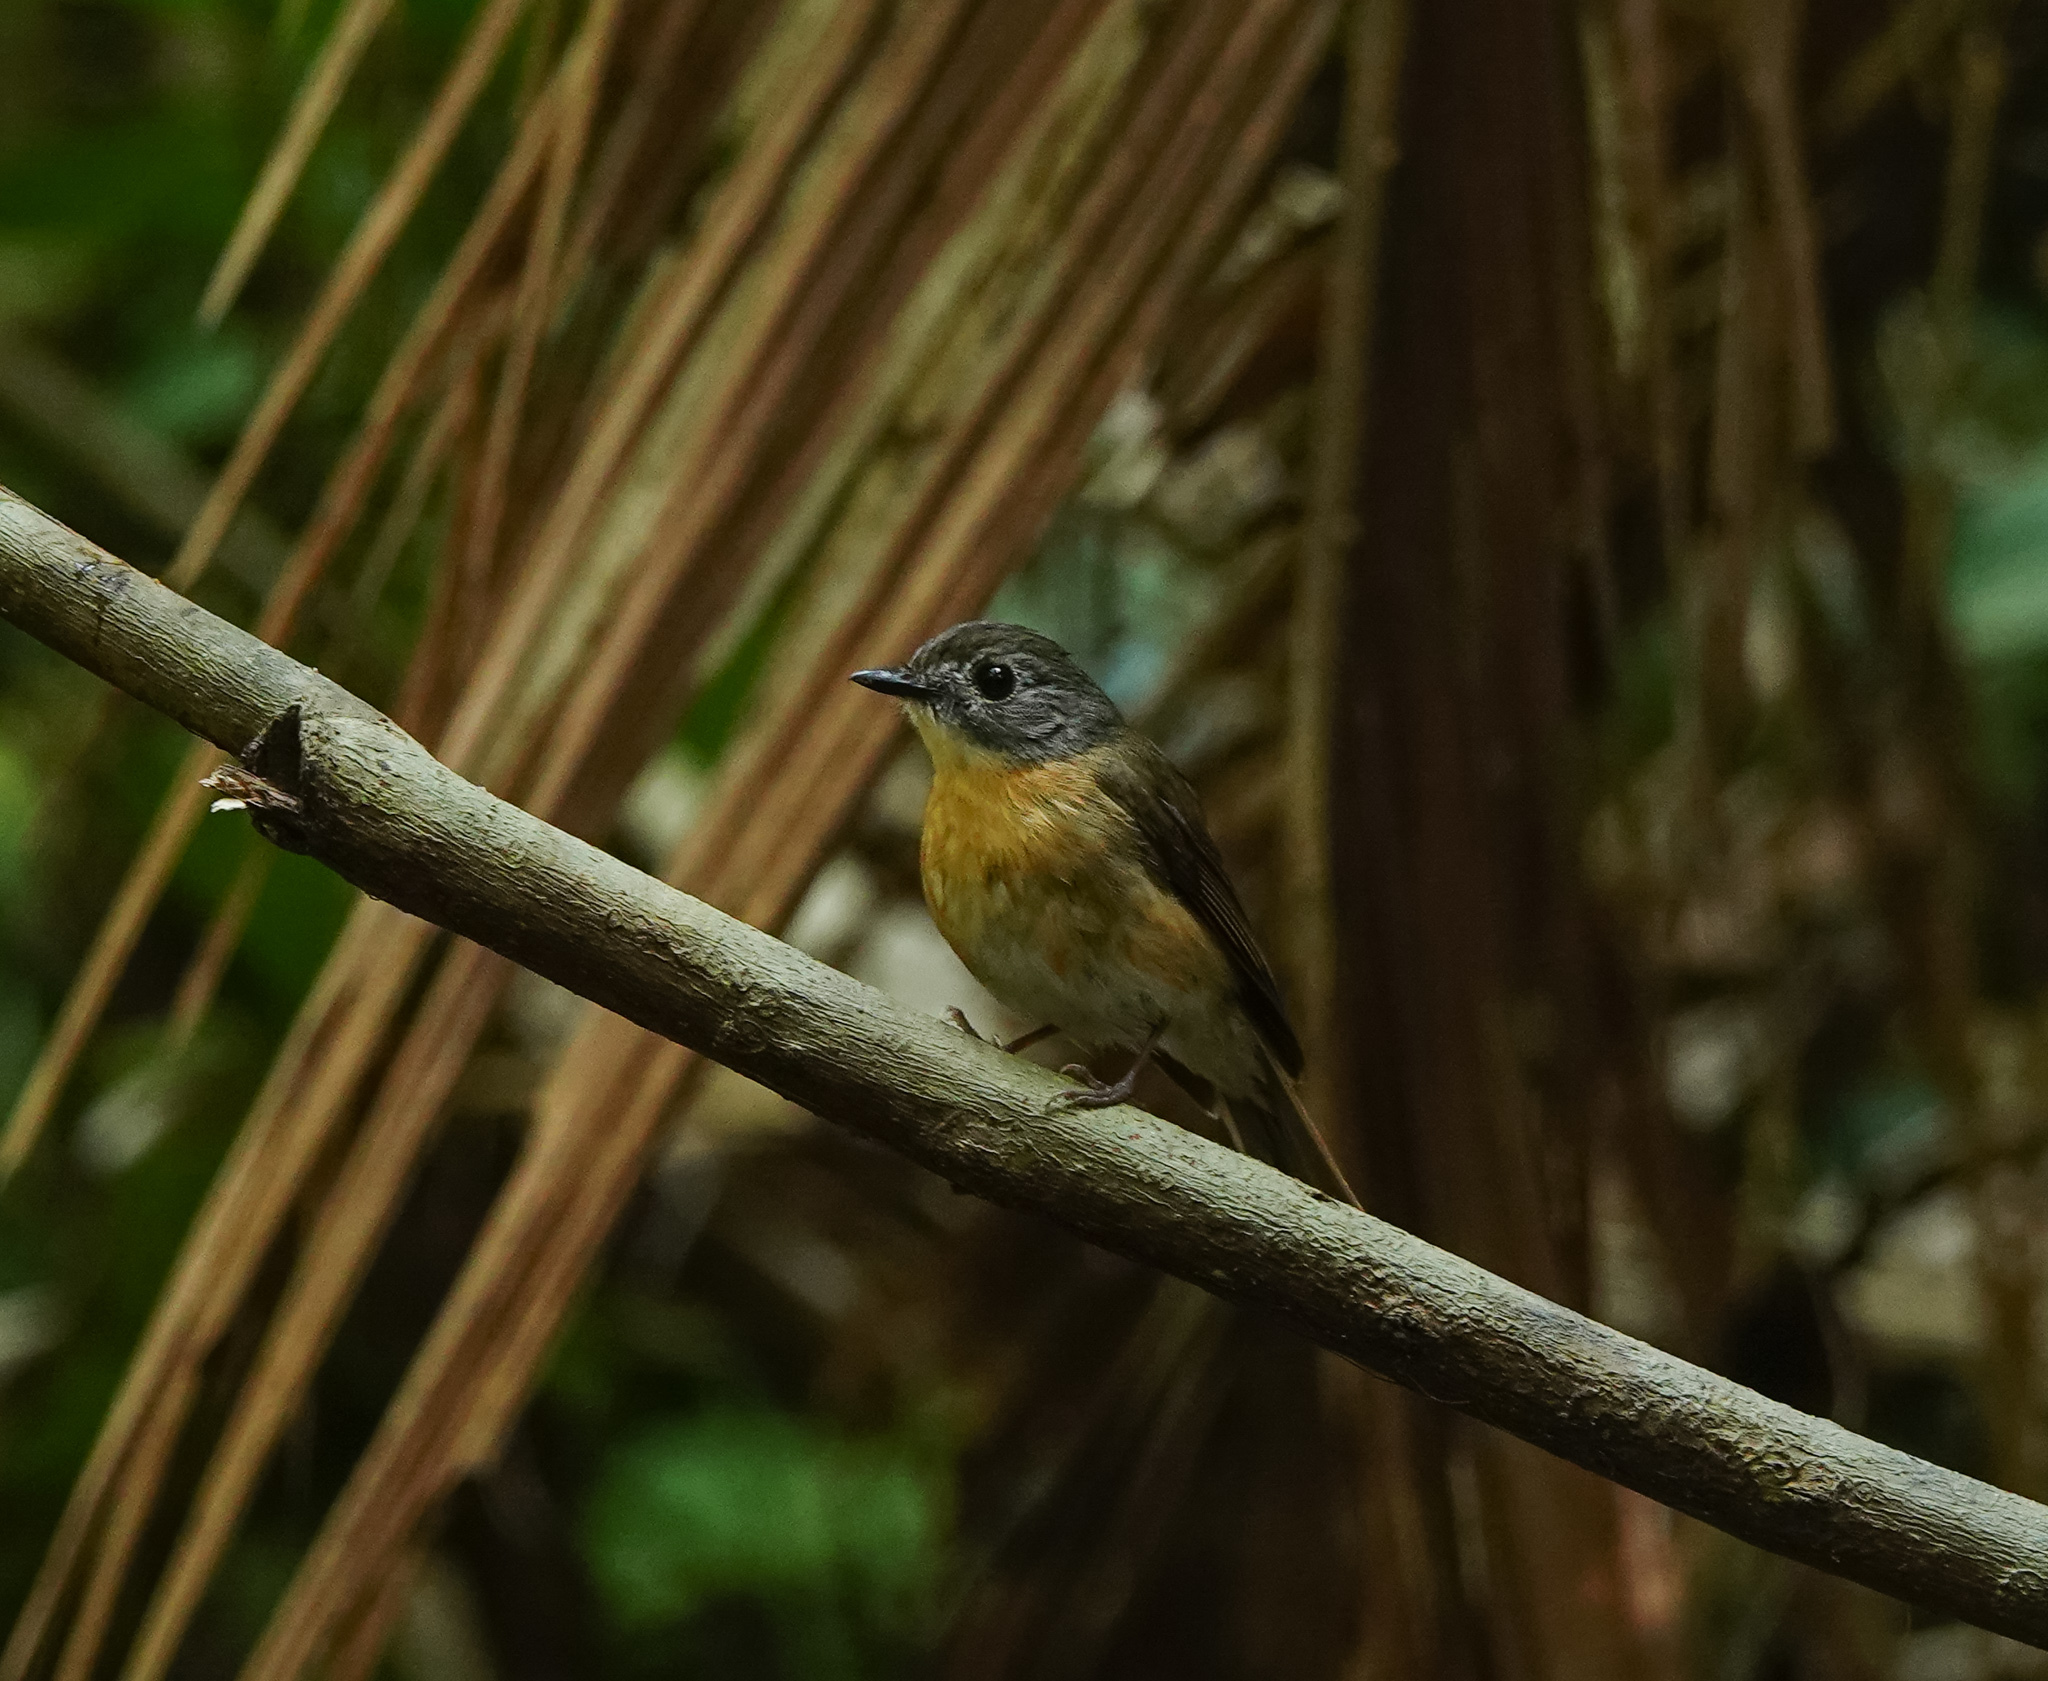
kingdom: Animalia
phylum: Chordata
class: Aves
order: Passeriformes
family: Muscicapidae
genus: Cyornis
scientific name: Cyornis poliogenys
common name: Pale-chinned blue flycatcher
